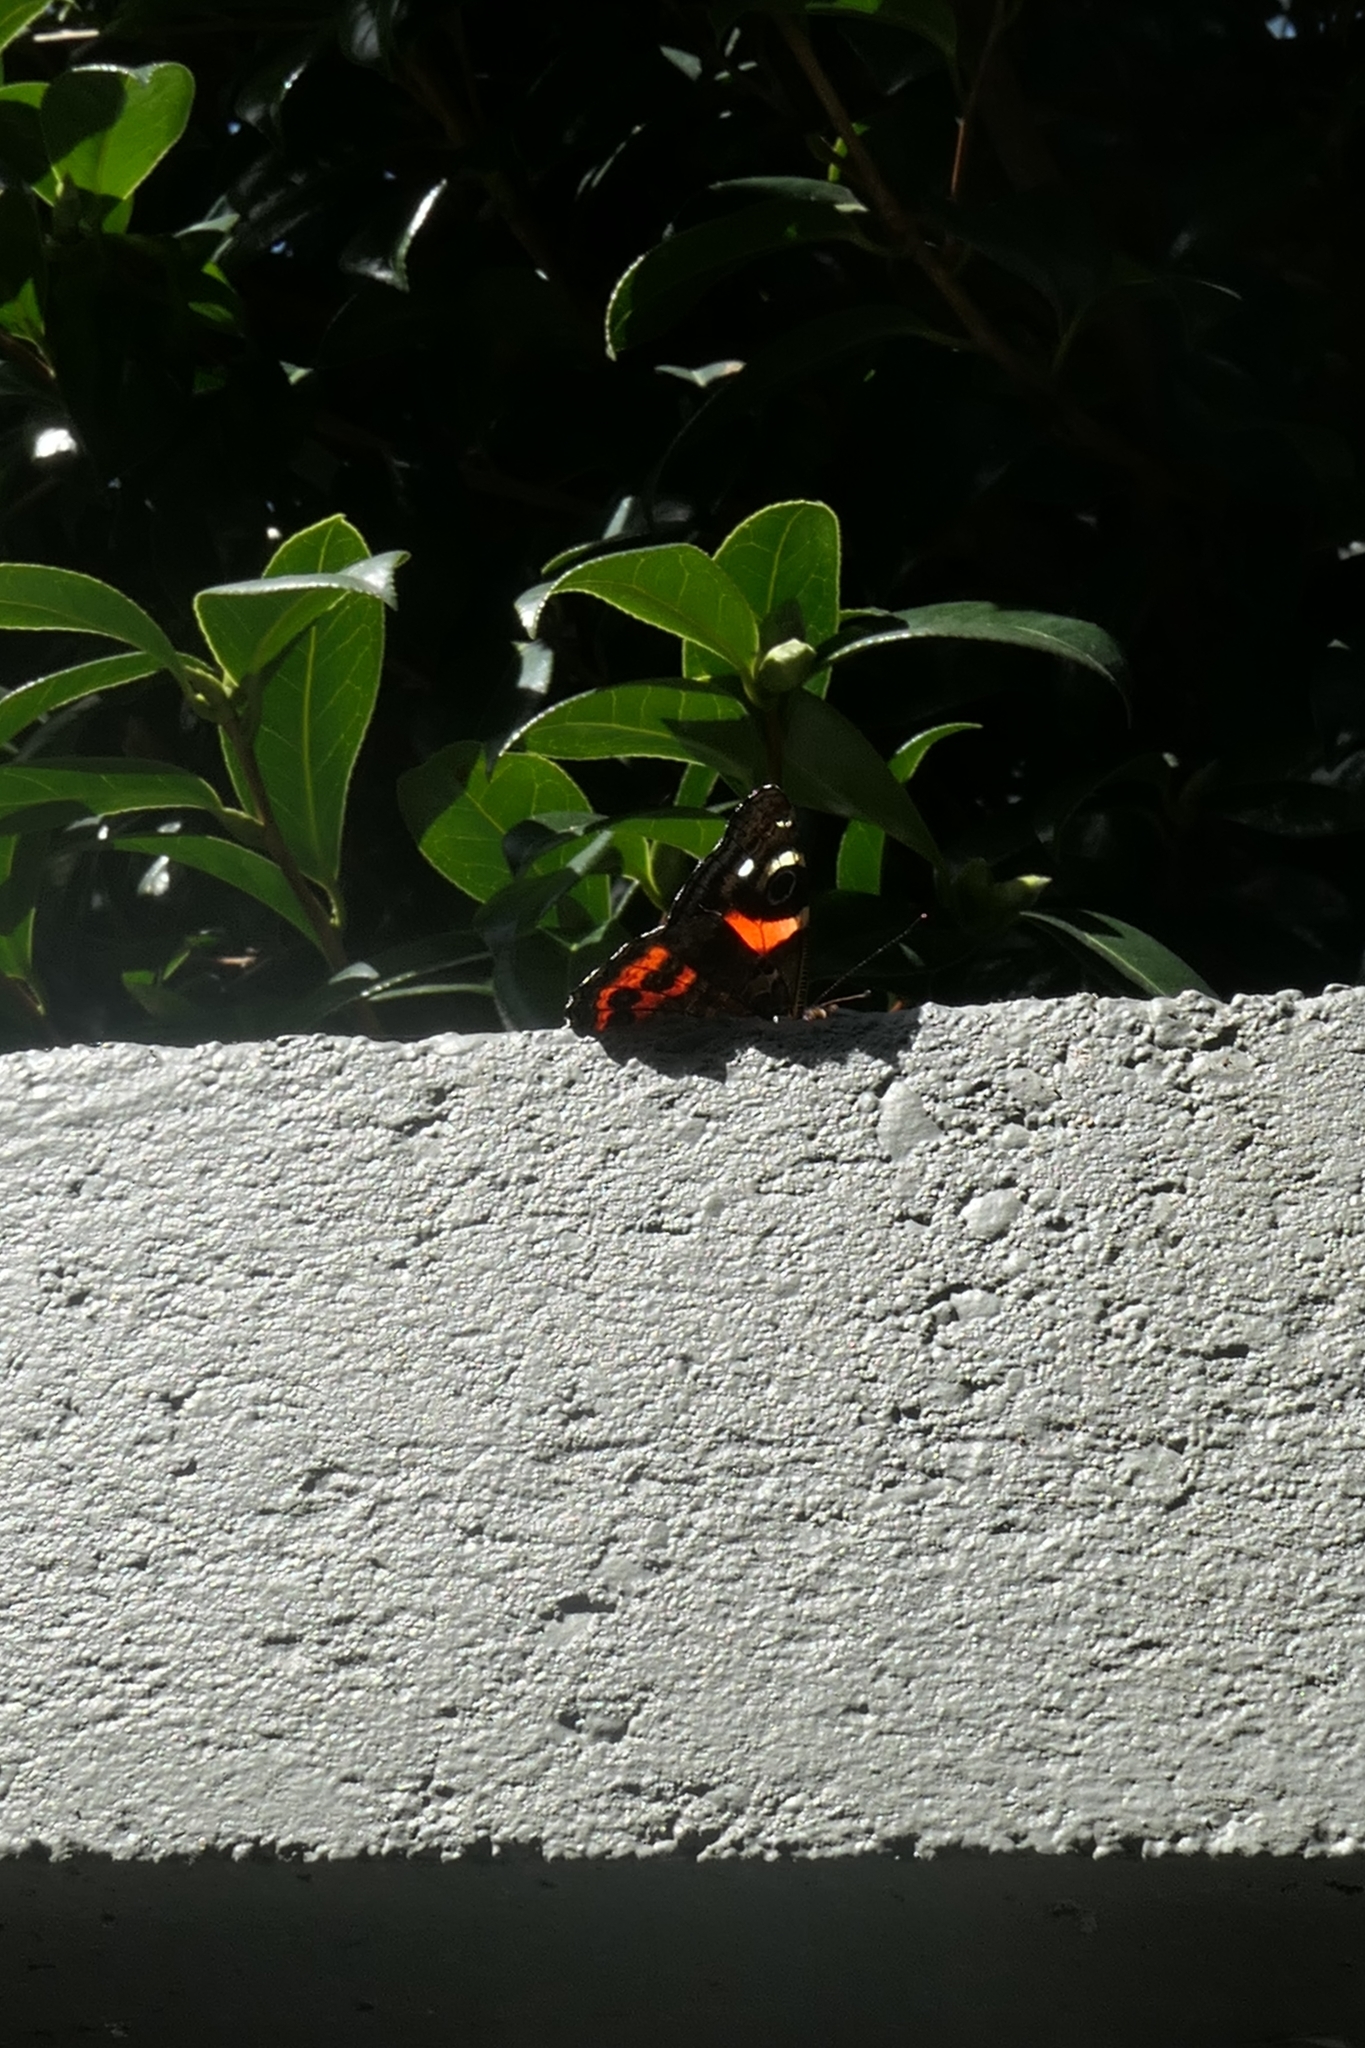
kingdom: Animalia
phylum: Arthropoda
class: Insecta
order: Lepidoptera
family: Nymphalidae
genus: Vanessa
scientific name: Vanessa gonerilla
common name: New zealand red admiral
